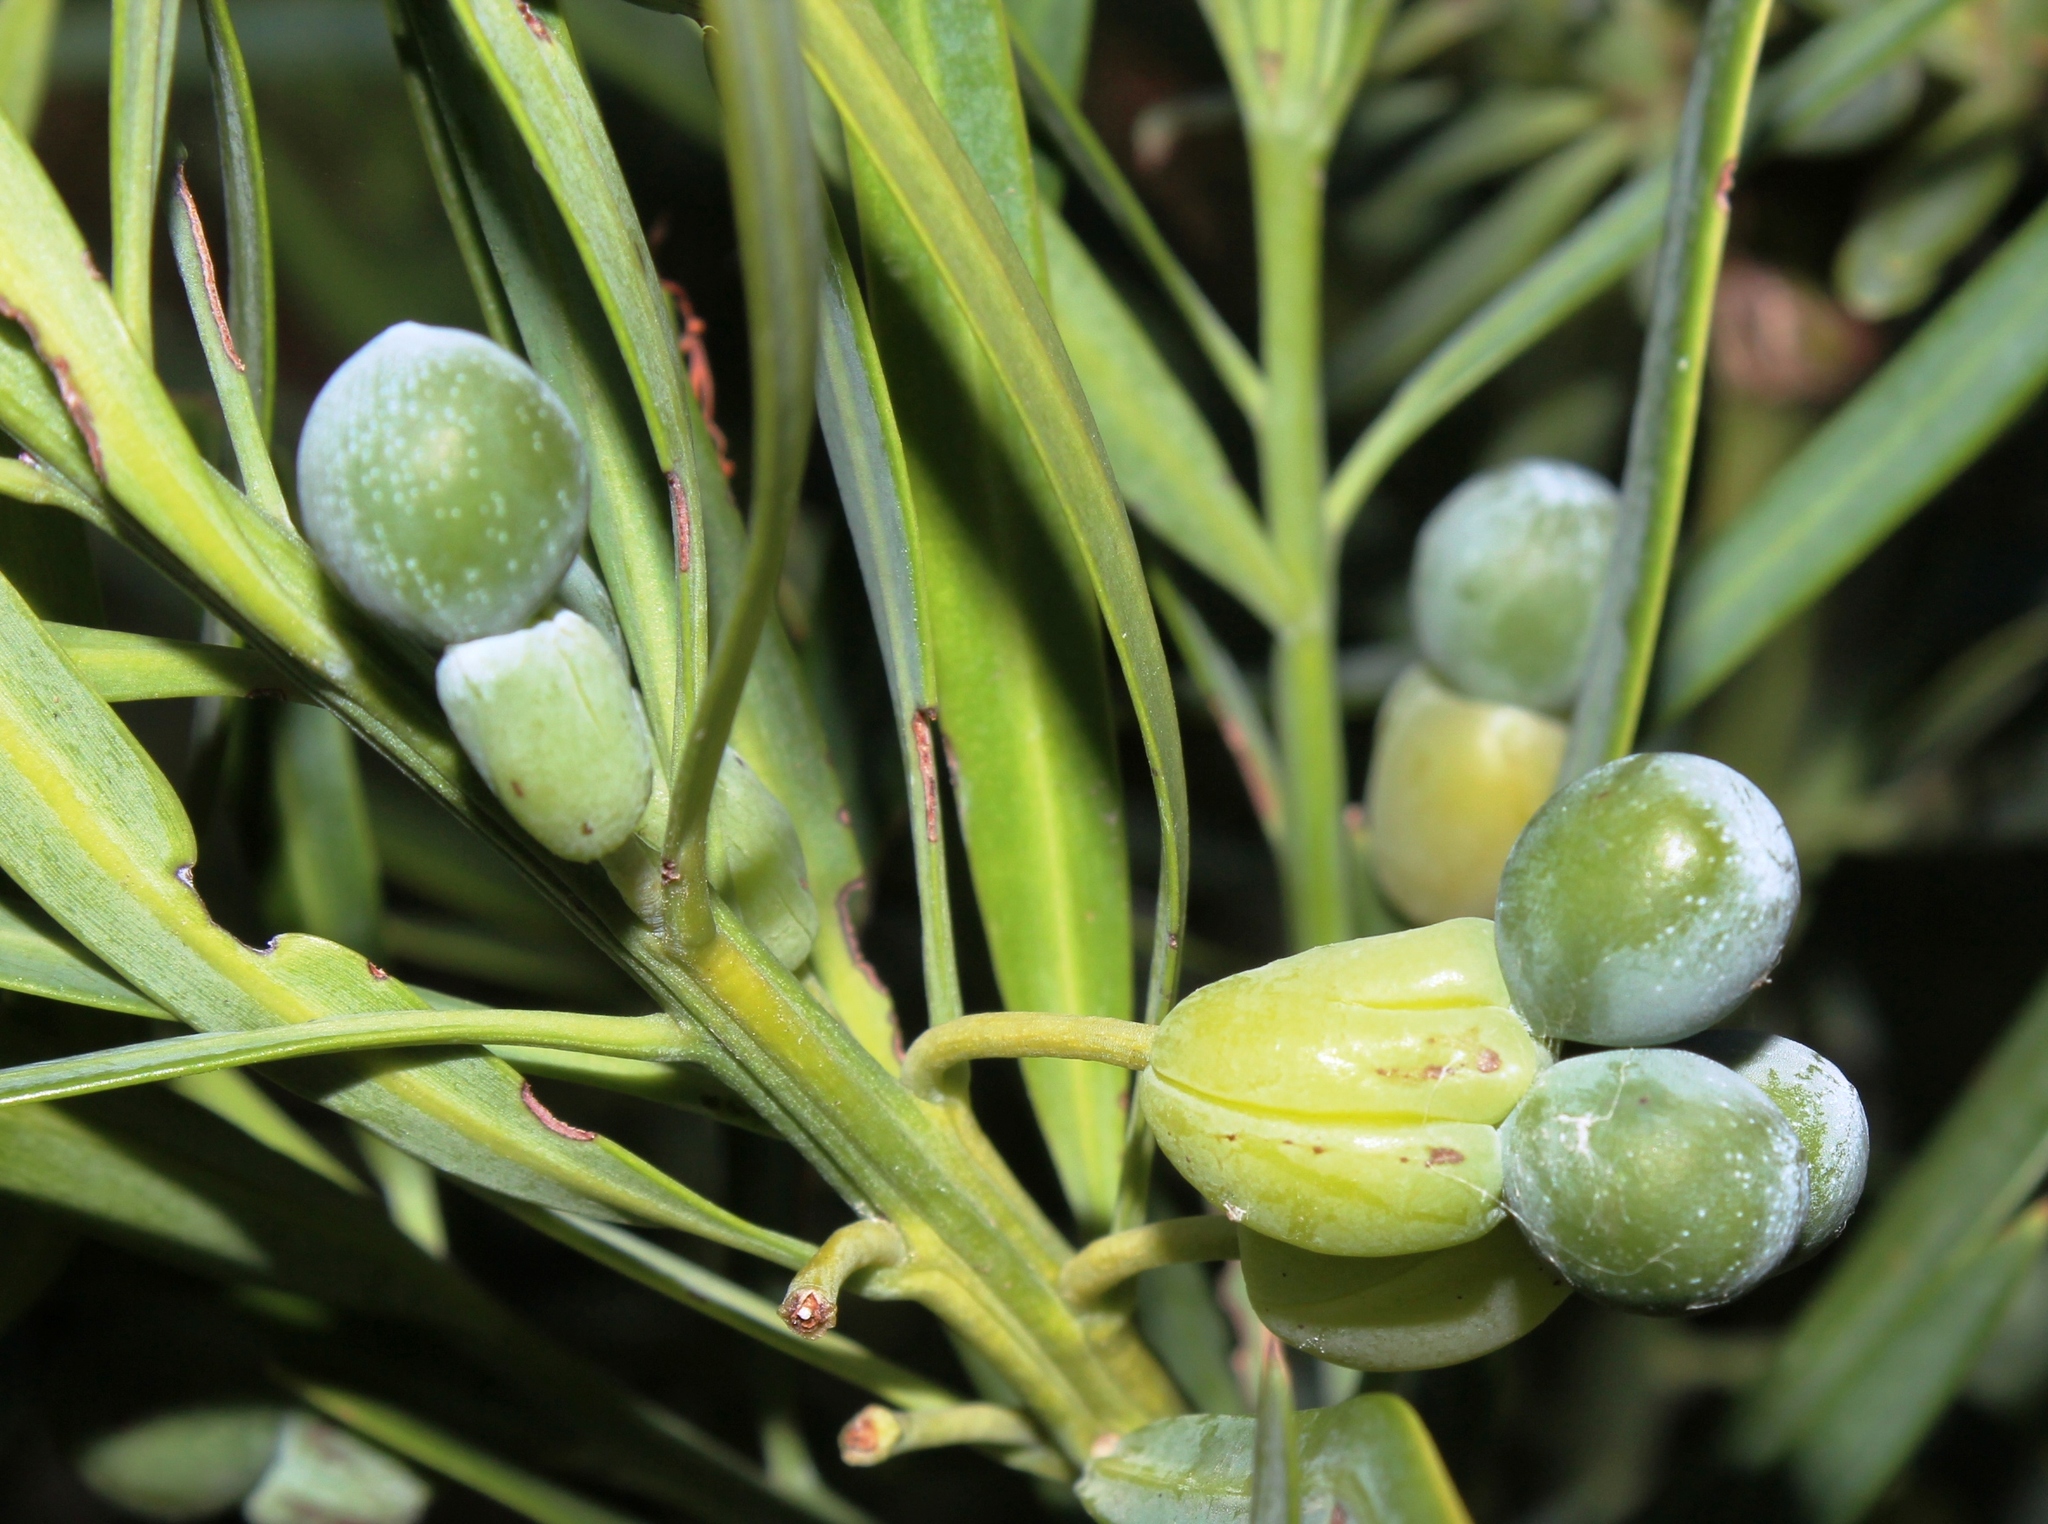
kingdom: Plantae
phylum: Tracheophyta
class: Pinopsida
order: Pinales
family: Podocarpaceae
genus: Podocarpus
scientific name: Podocarpus elongatus
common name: Breede river yellowwood
